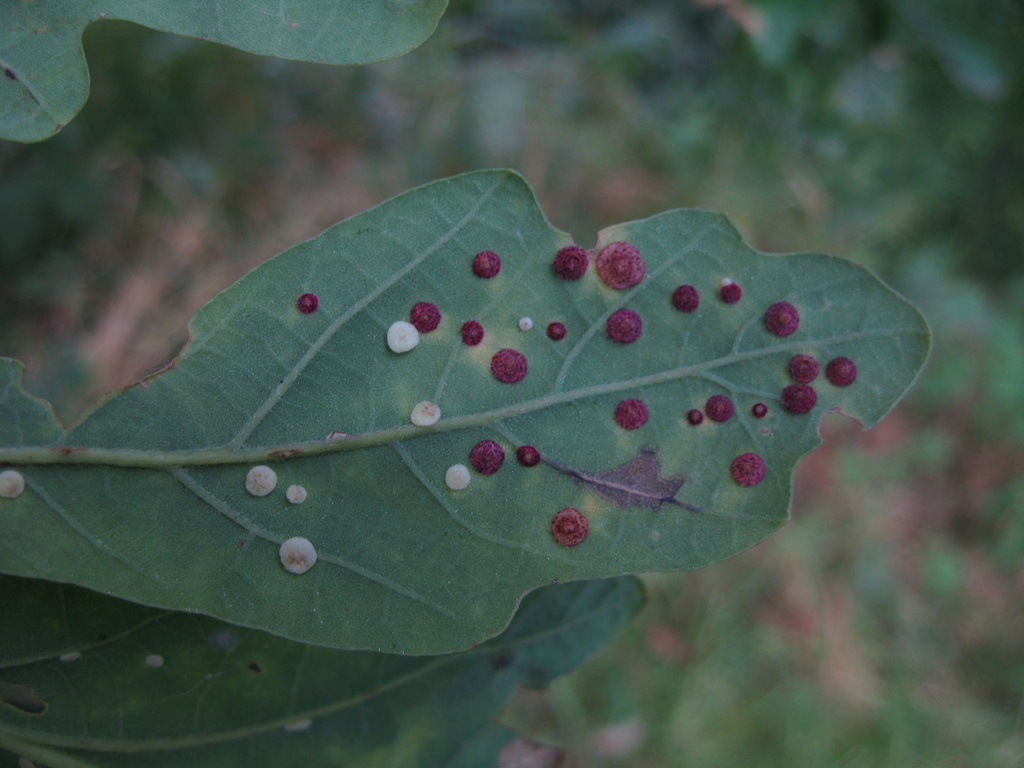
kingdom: Animalia
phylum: Arthropoda
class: Insecta
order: Hymenoptera
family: Cynipidae
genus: Neuroterus
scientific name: Neuroterus quercusbaccarum
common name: Common spangle gall
